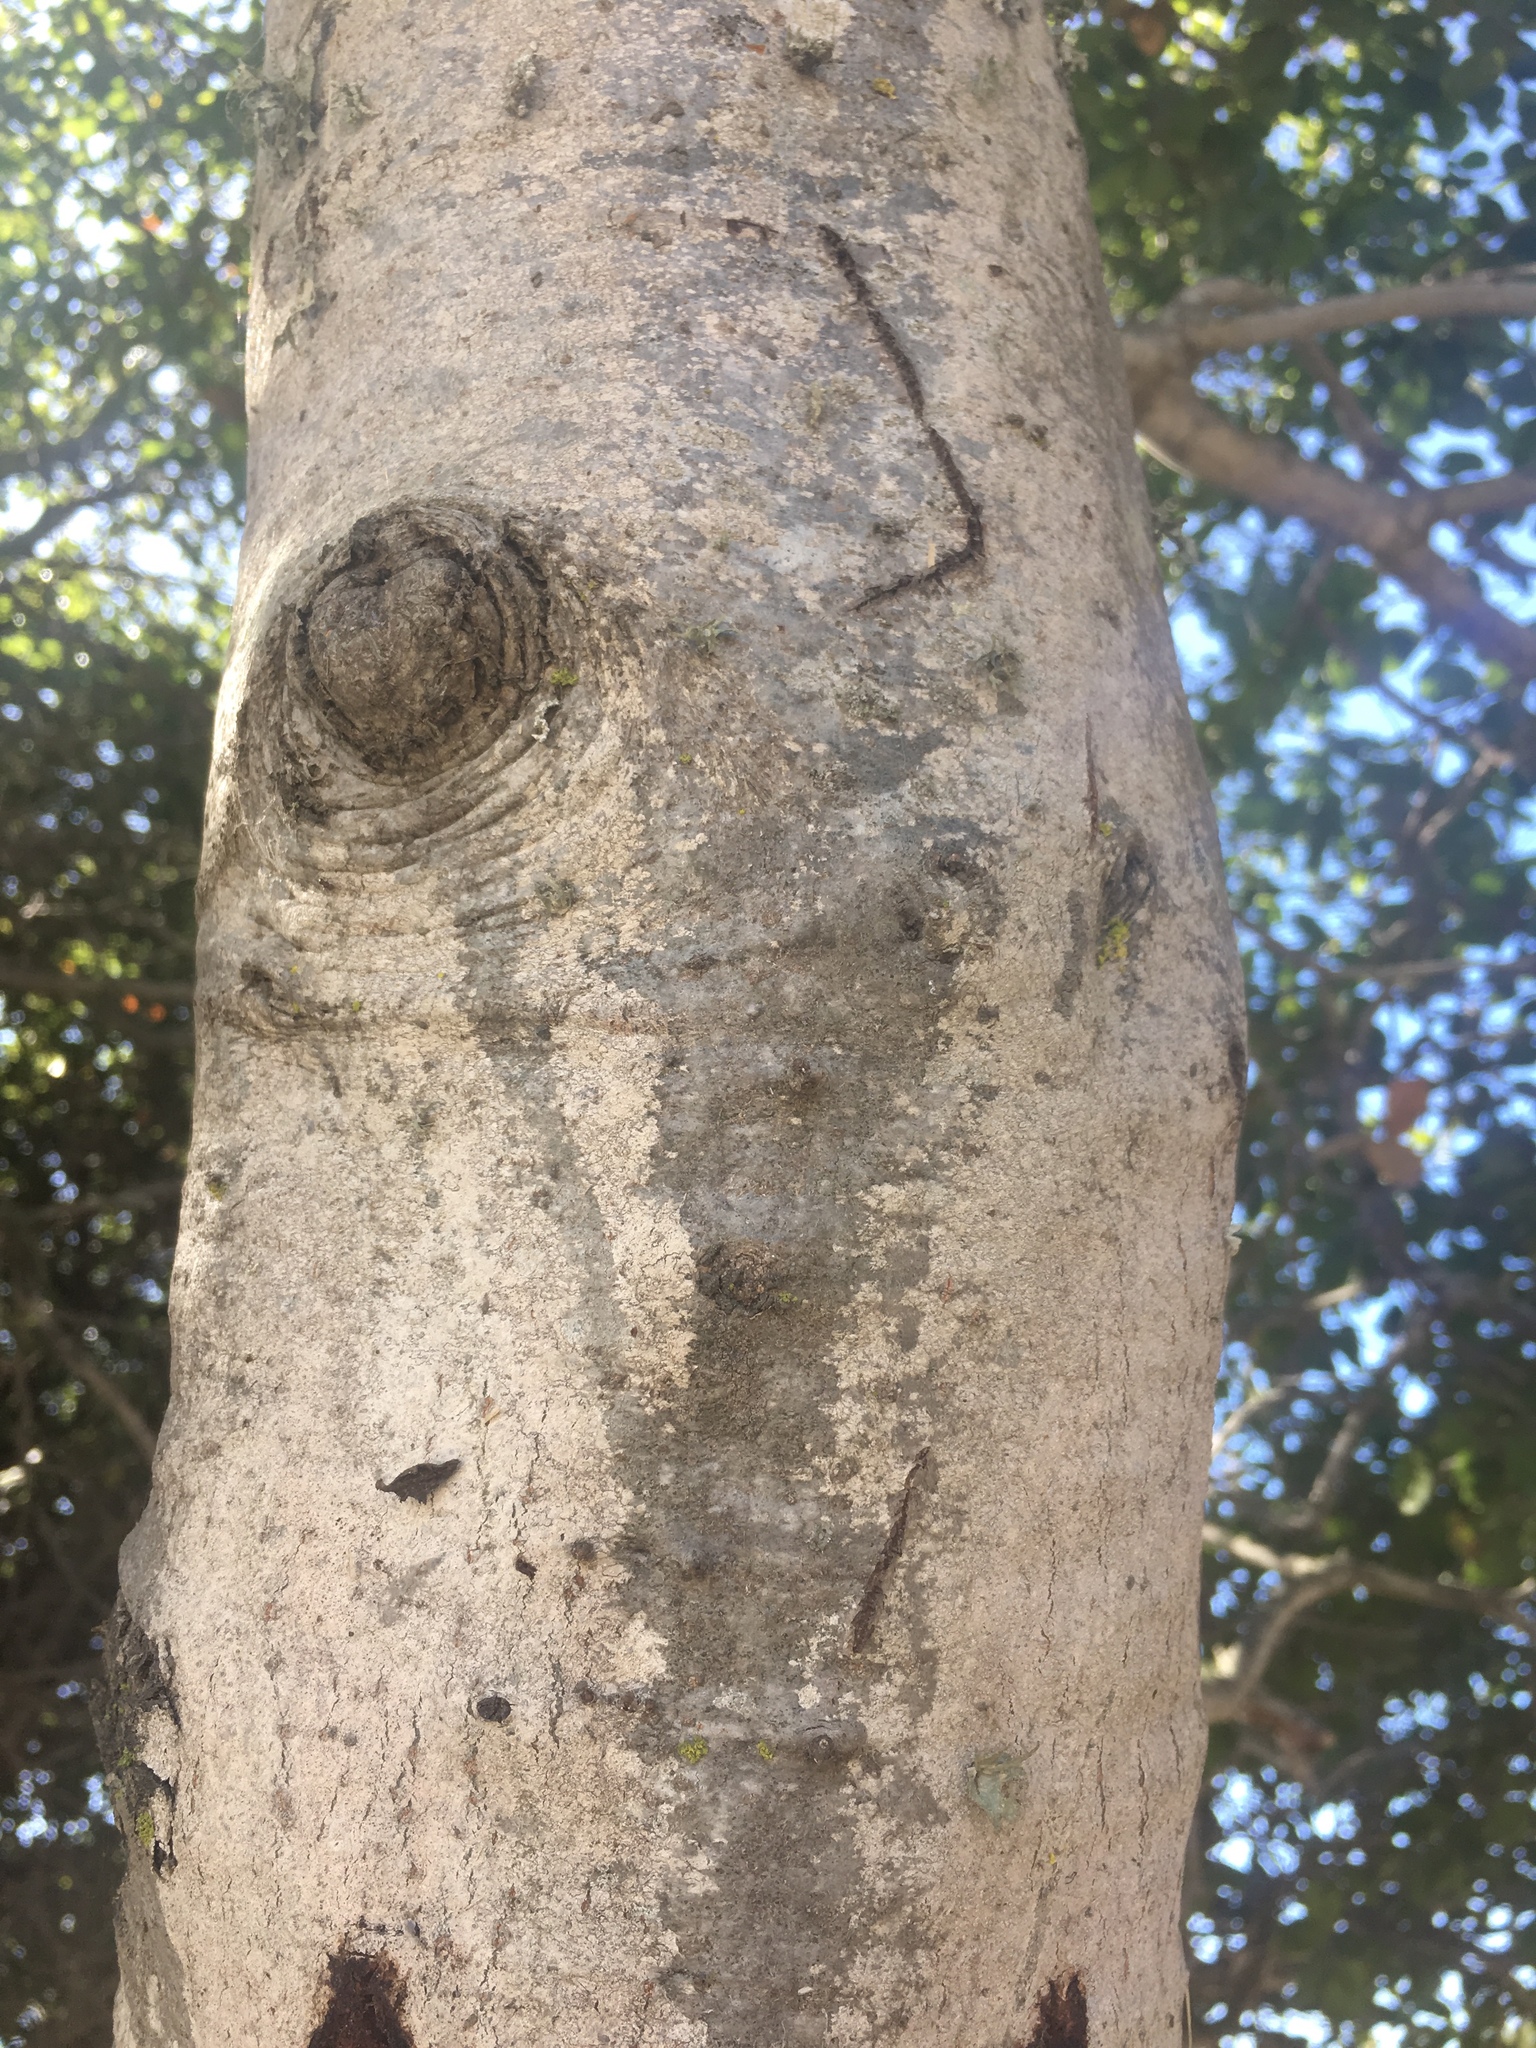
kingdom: Plantae
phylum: Tracheophyta
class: Magnoliopsida
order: Fagales
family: Fagaceae
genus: Quercus
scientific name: Quercus agrifolia
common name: California live oak
